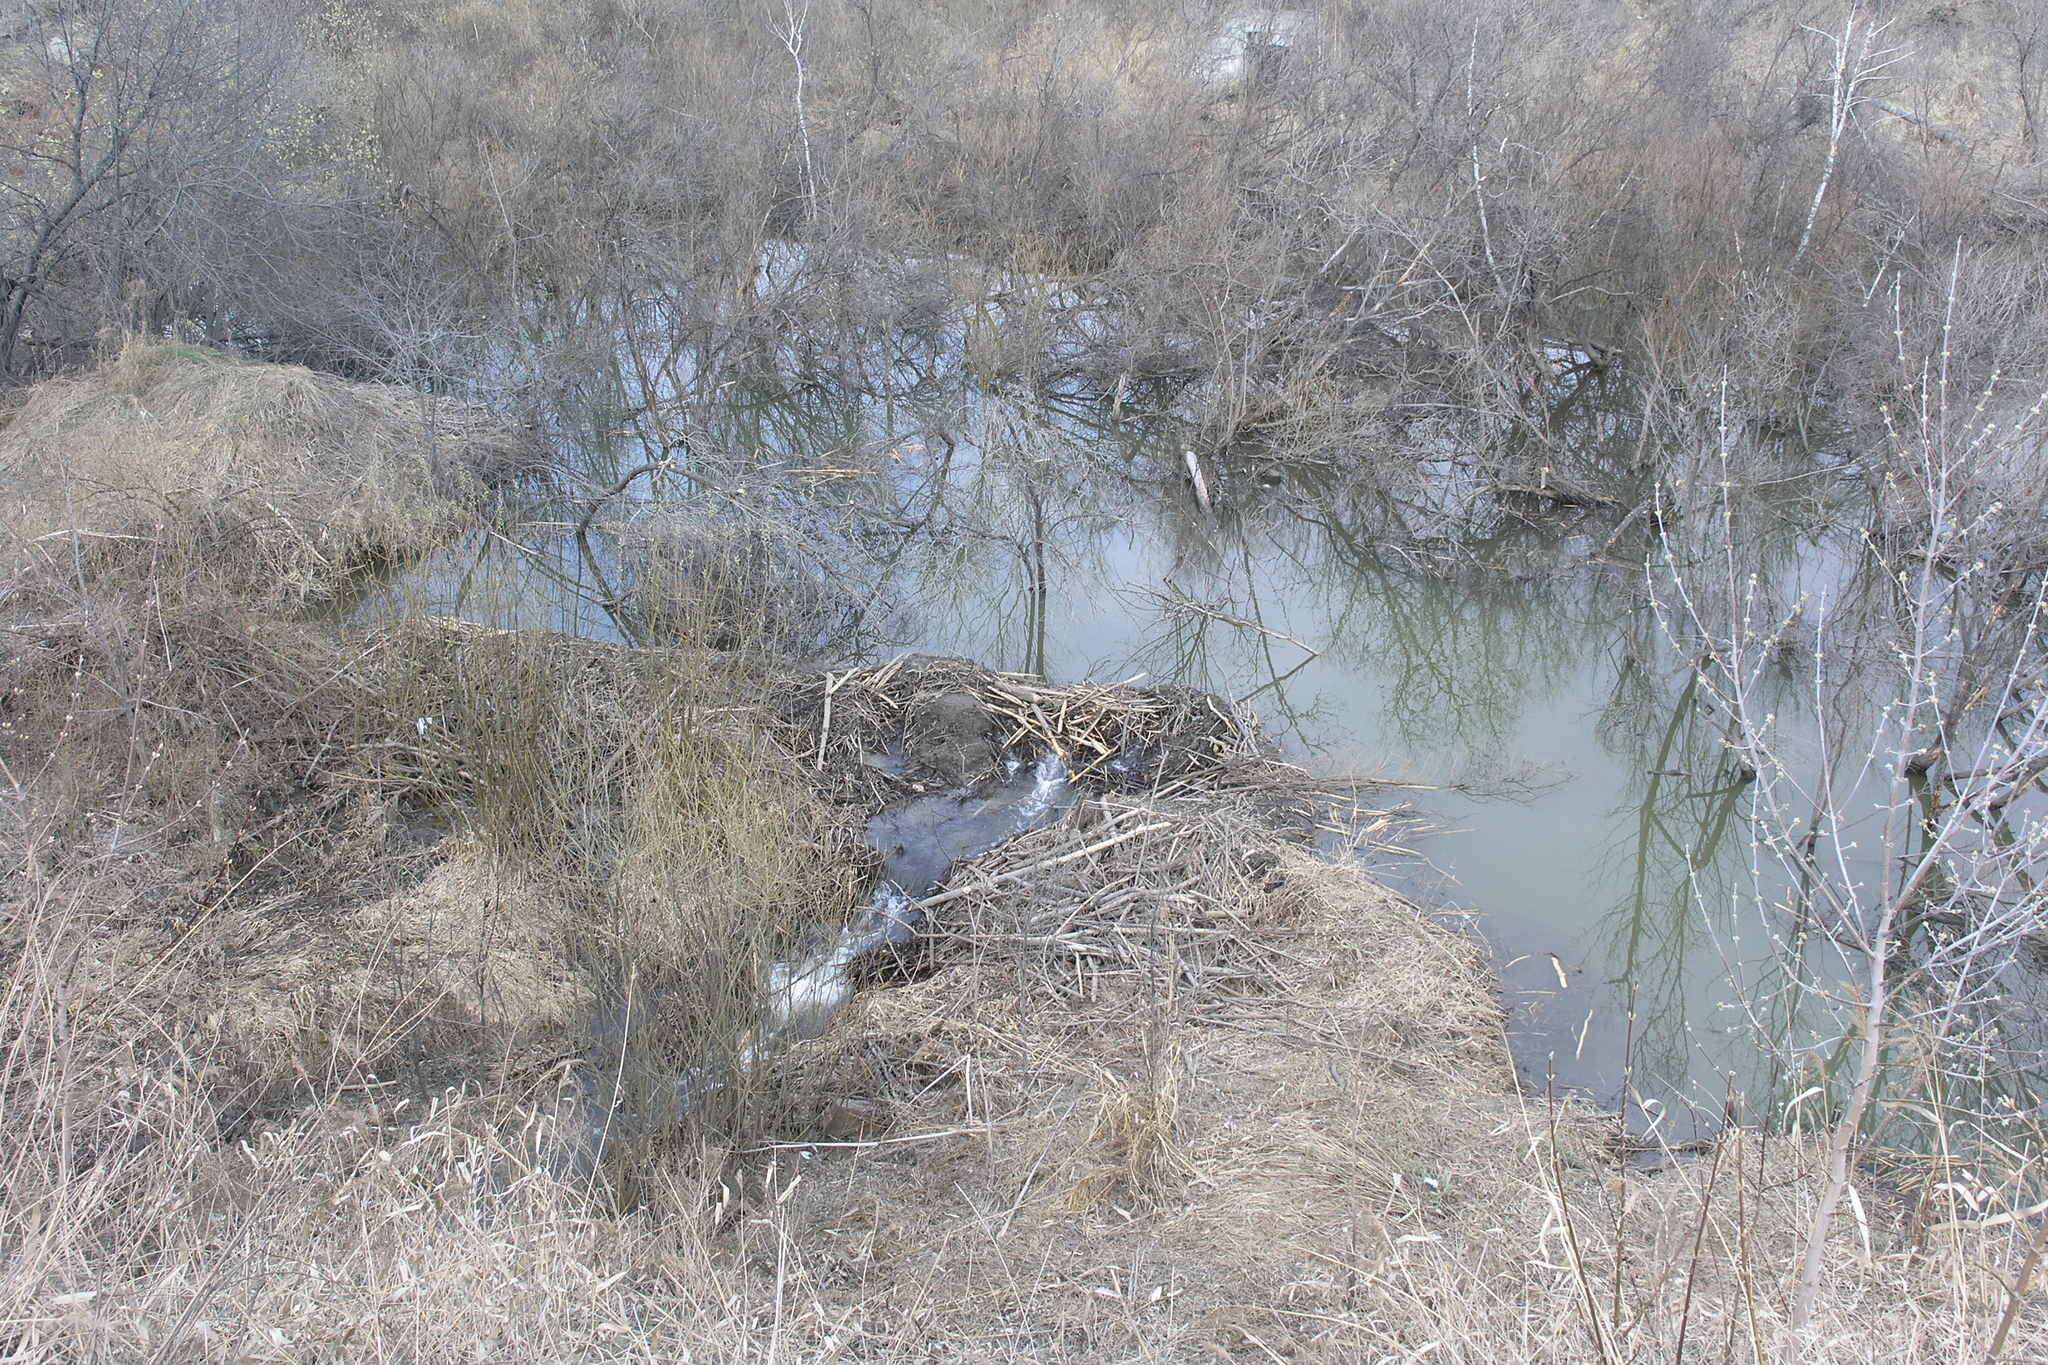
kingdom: Animalia
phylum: Chordata
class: Mammalia
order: Rodentia
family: Castoridae
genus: Castor
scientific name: Castor fiber
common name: Eurasian beaver
